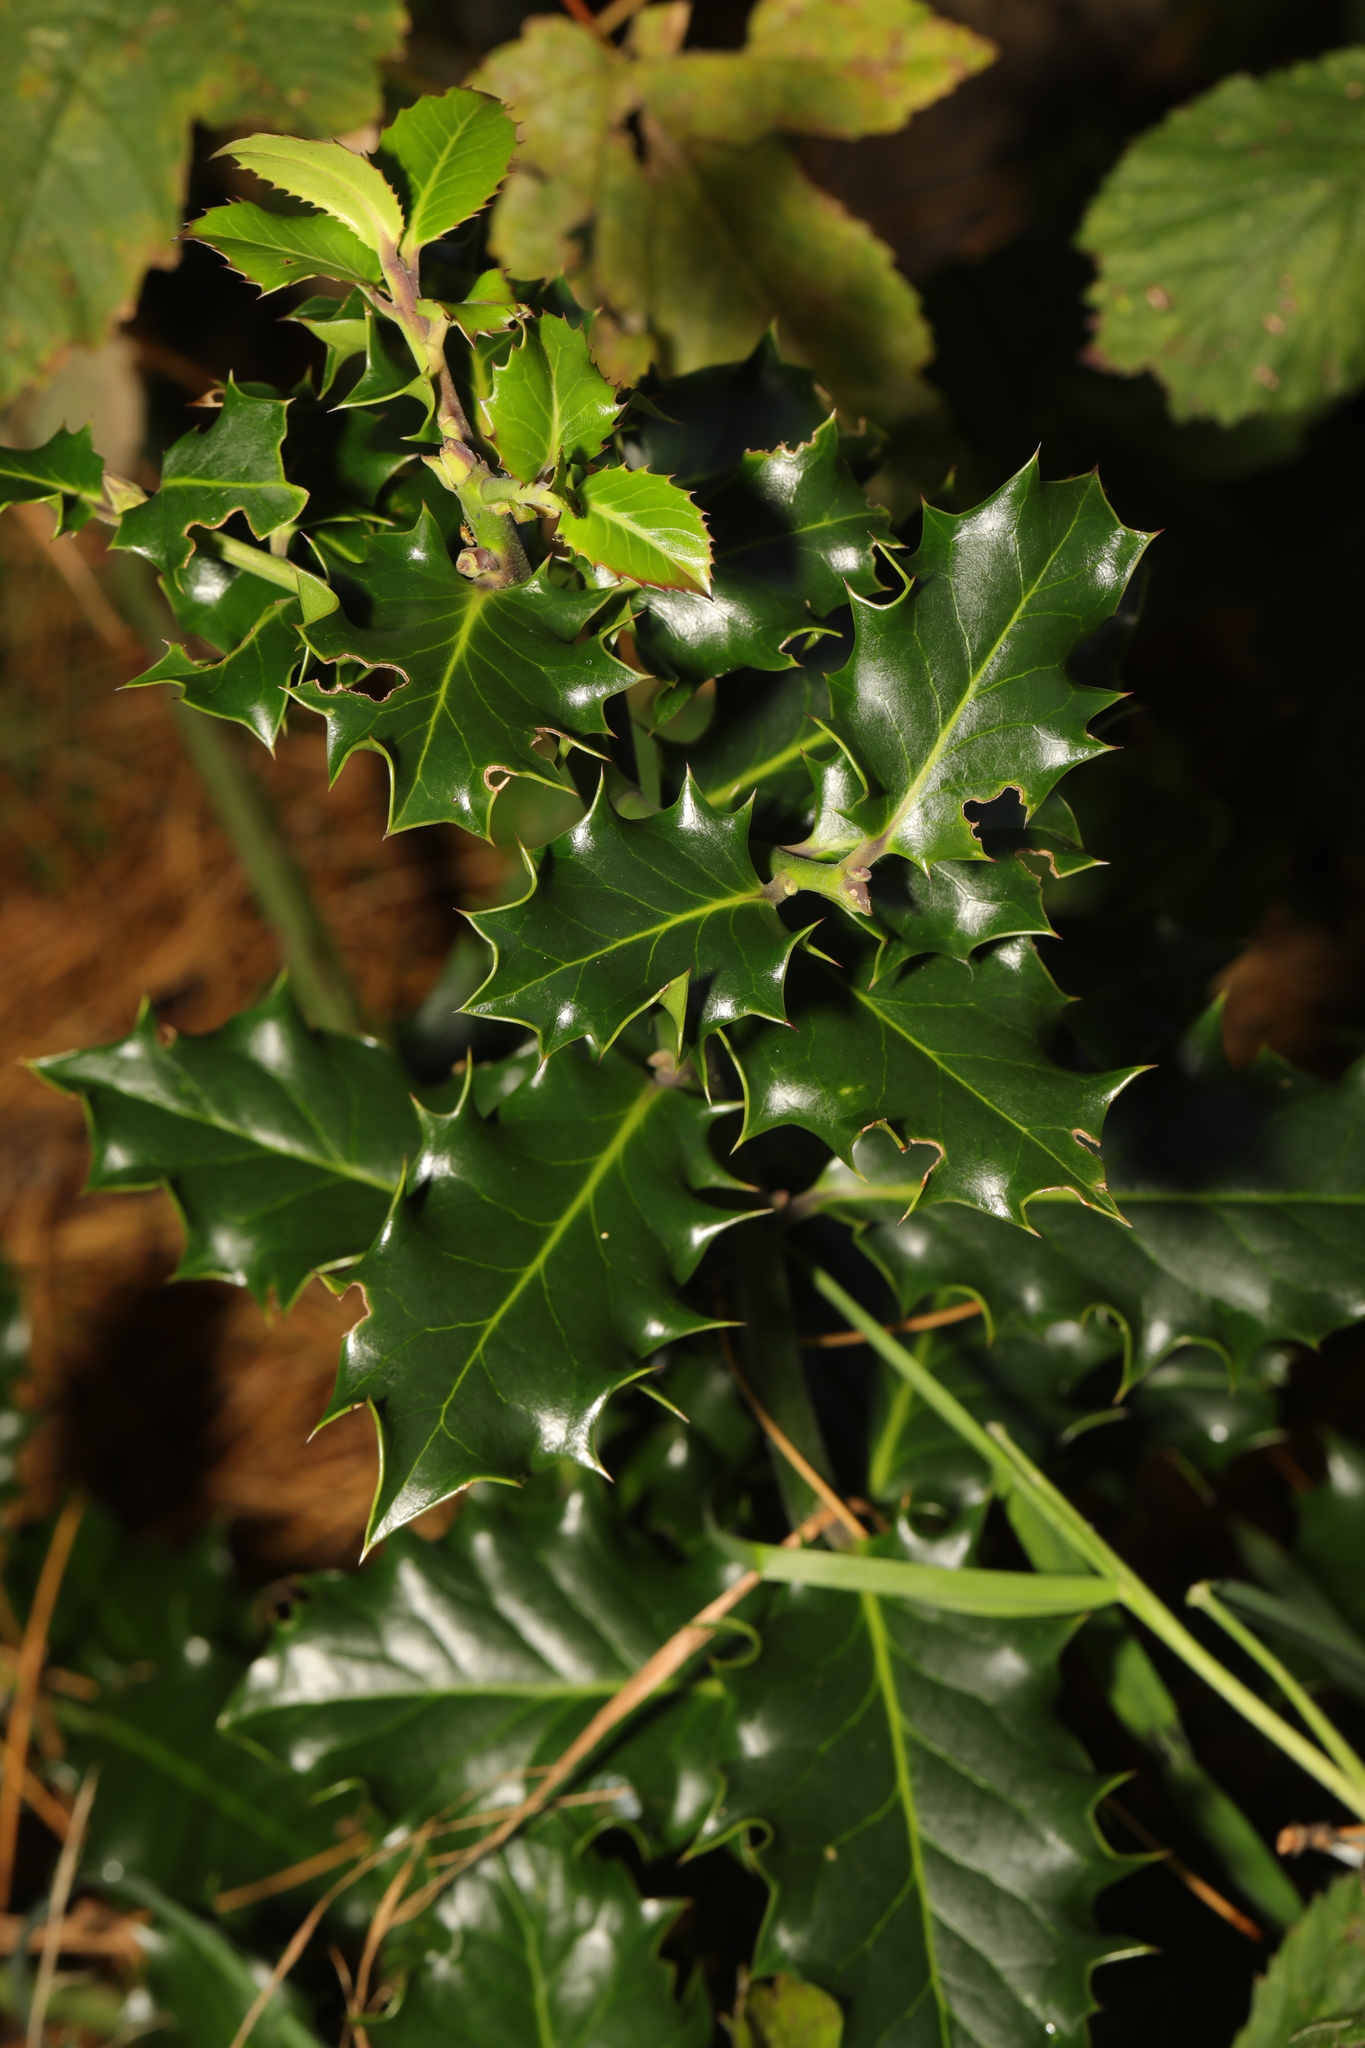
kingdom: Plantae
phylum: Tracheophyta
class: Magnoliopsida
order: Aquifoliales
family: Aquifoliaceae
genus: Ilex
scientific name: Ilex aquifolium
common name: English holly
